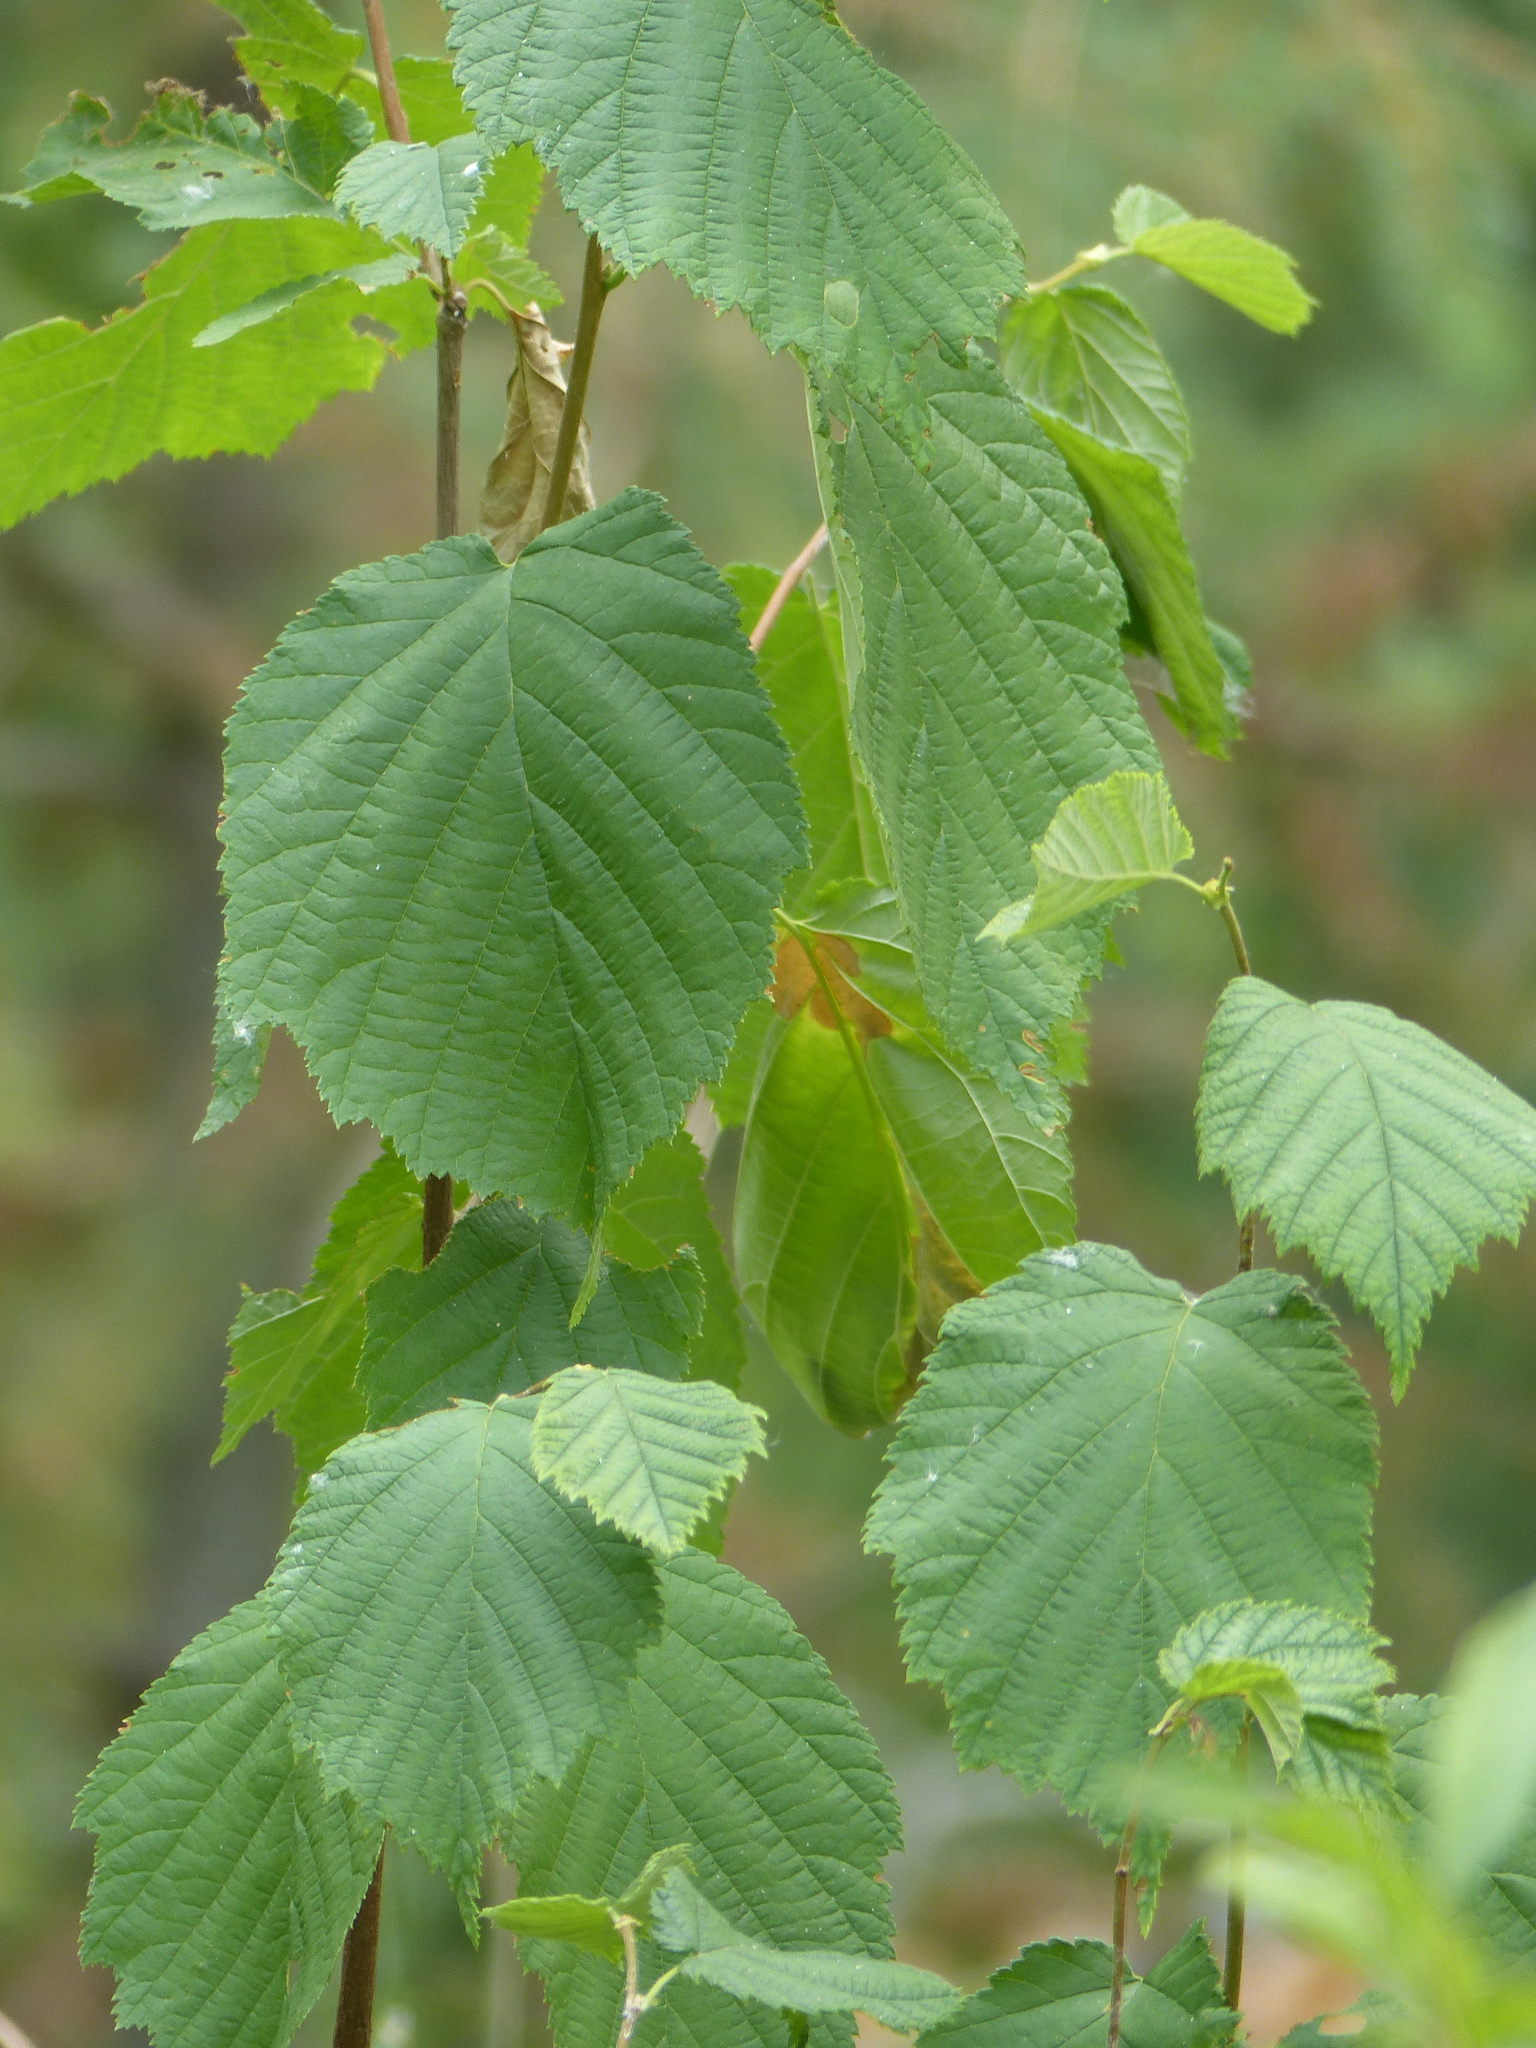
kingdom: Plantae
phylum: Tracheophyta
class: Magnoliopsida
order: Fagales
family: Betulaceae
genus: Corylus
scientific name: Corylus cornuta
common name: Beaked hazel
